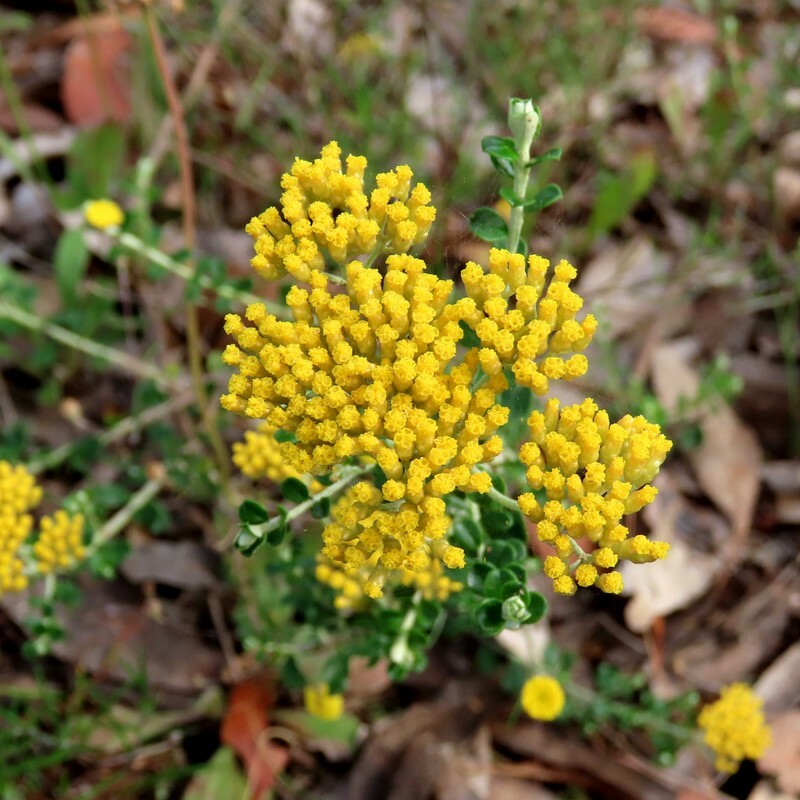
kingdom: Plantae
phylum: Tracheophyta
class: Magnoliopsida
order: Asterales
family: Asteraceae
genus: Ozothamnus
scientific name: Ozothamnus obcordatus
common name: Grey everlasting
